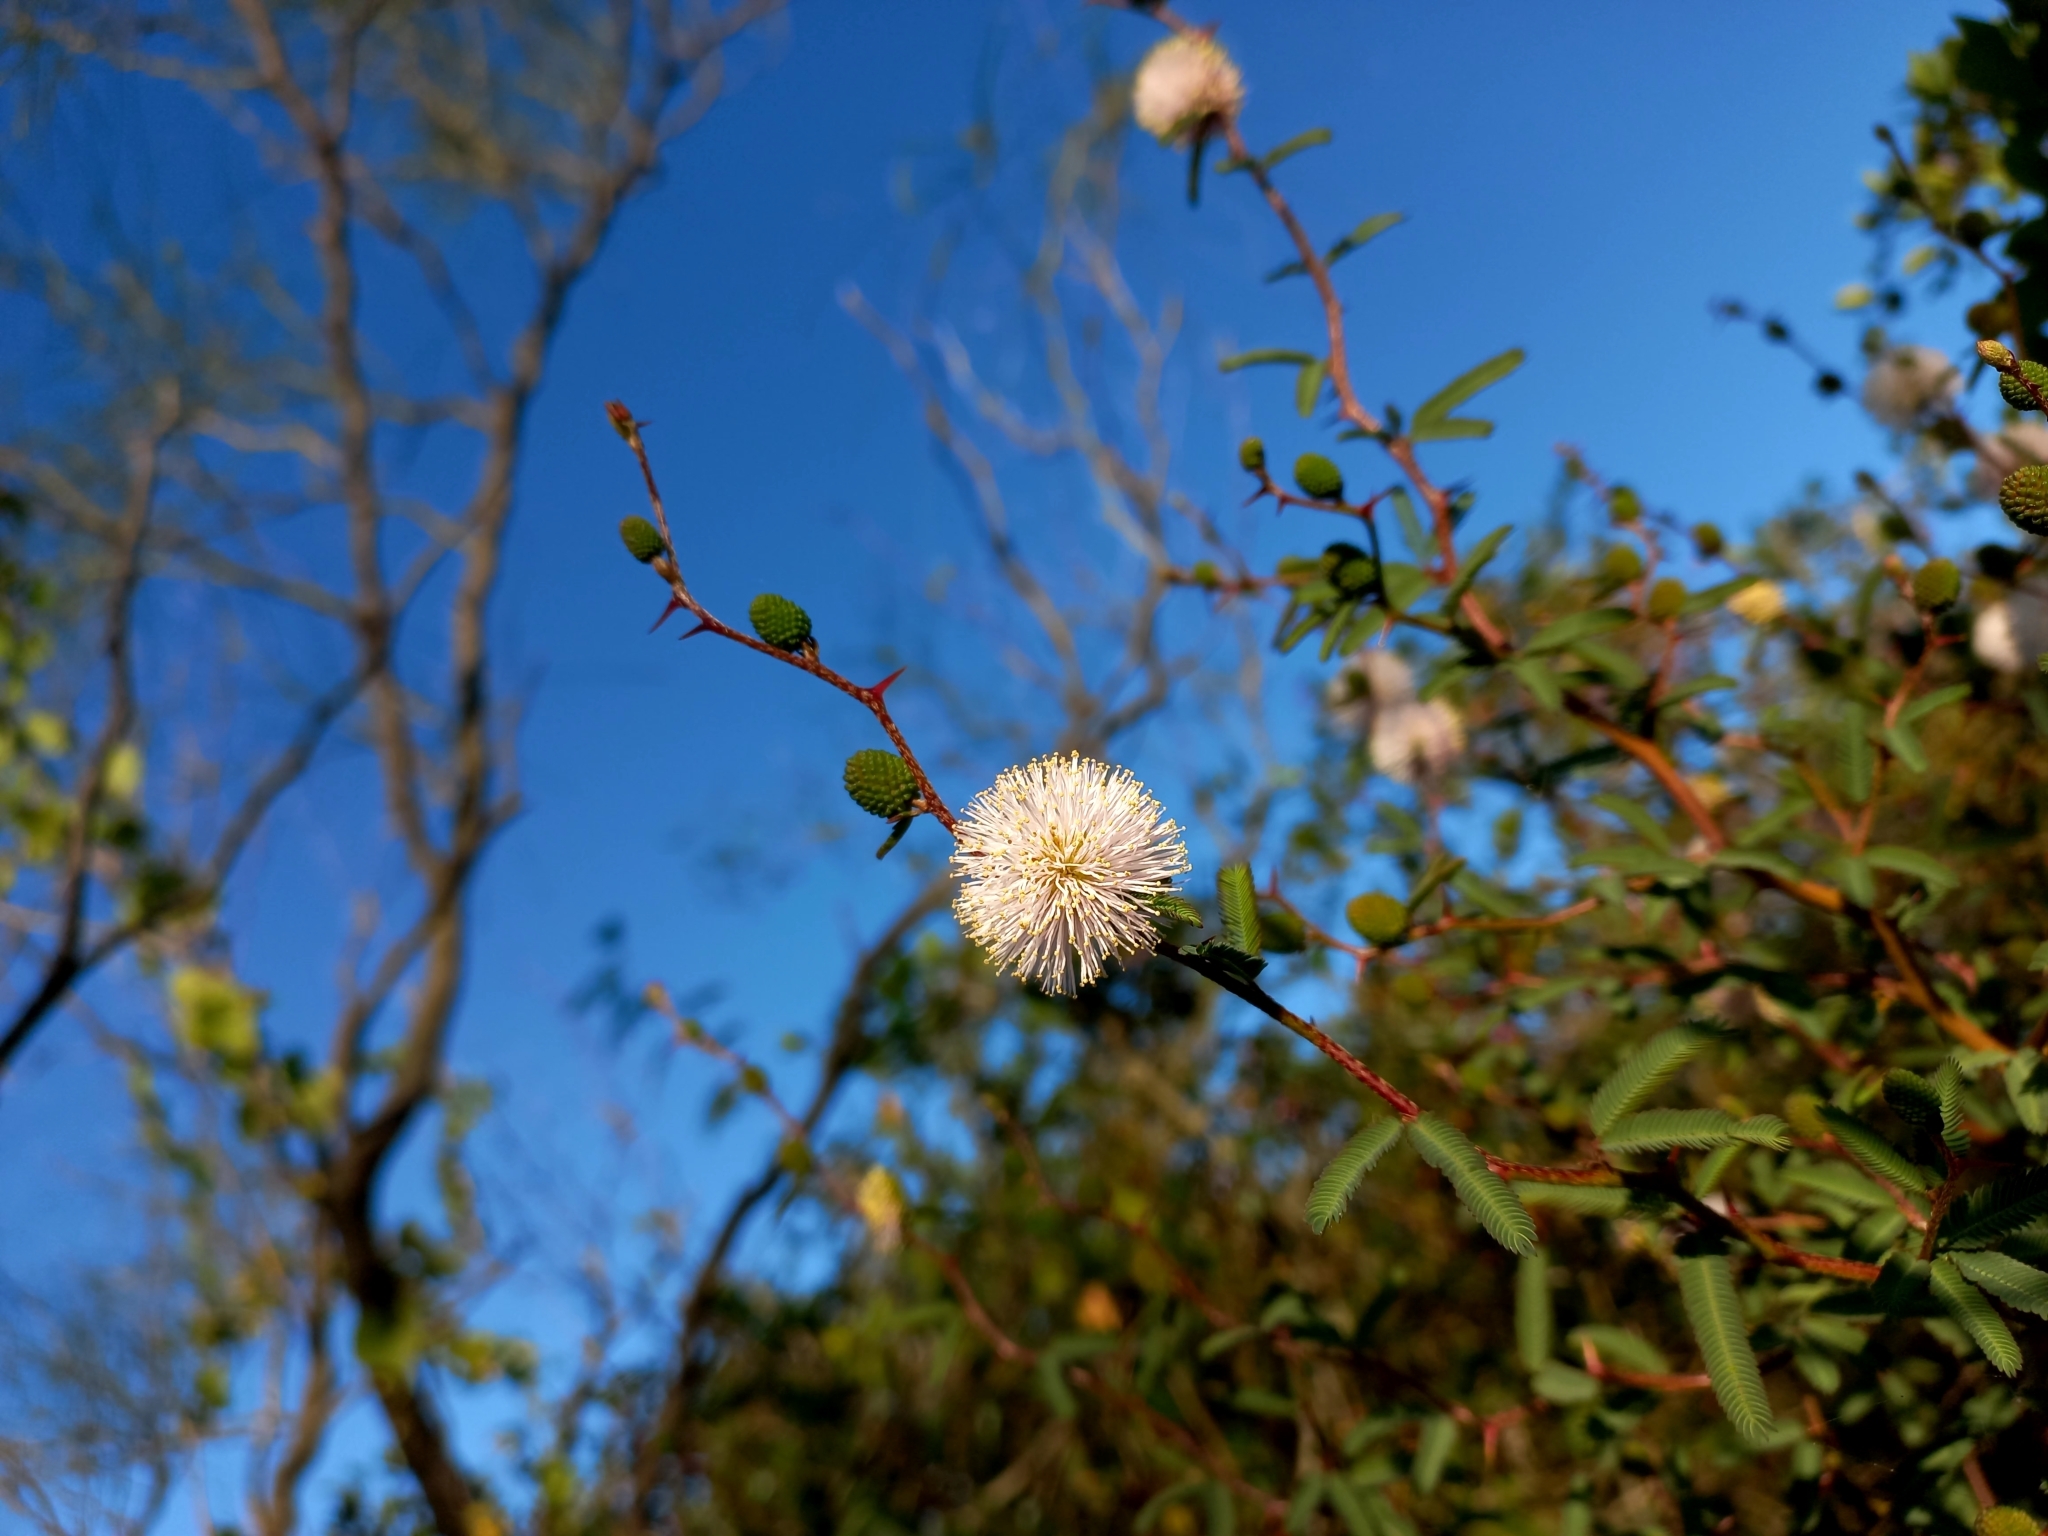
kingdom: Plantae
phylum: Tracheophyta
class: Magnoliopsida
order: Fabales
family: Fabaceae
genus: Mimosa
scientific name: Mimosa sprengelii
